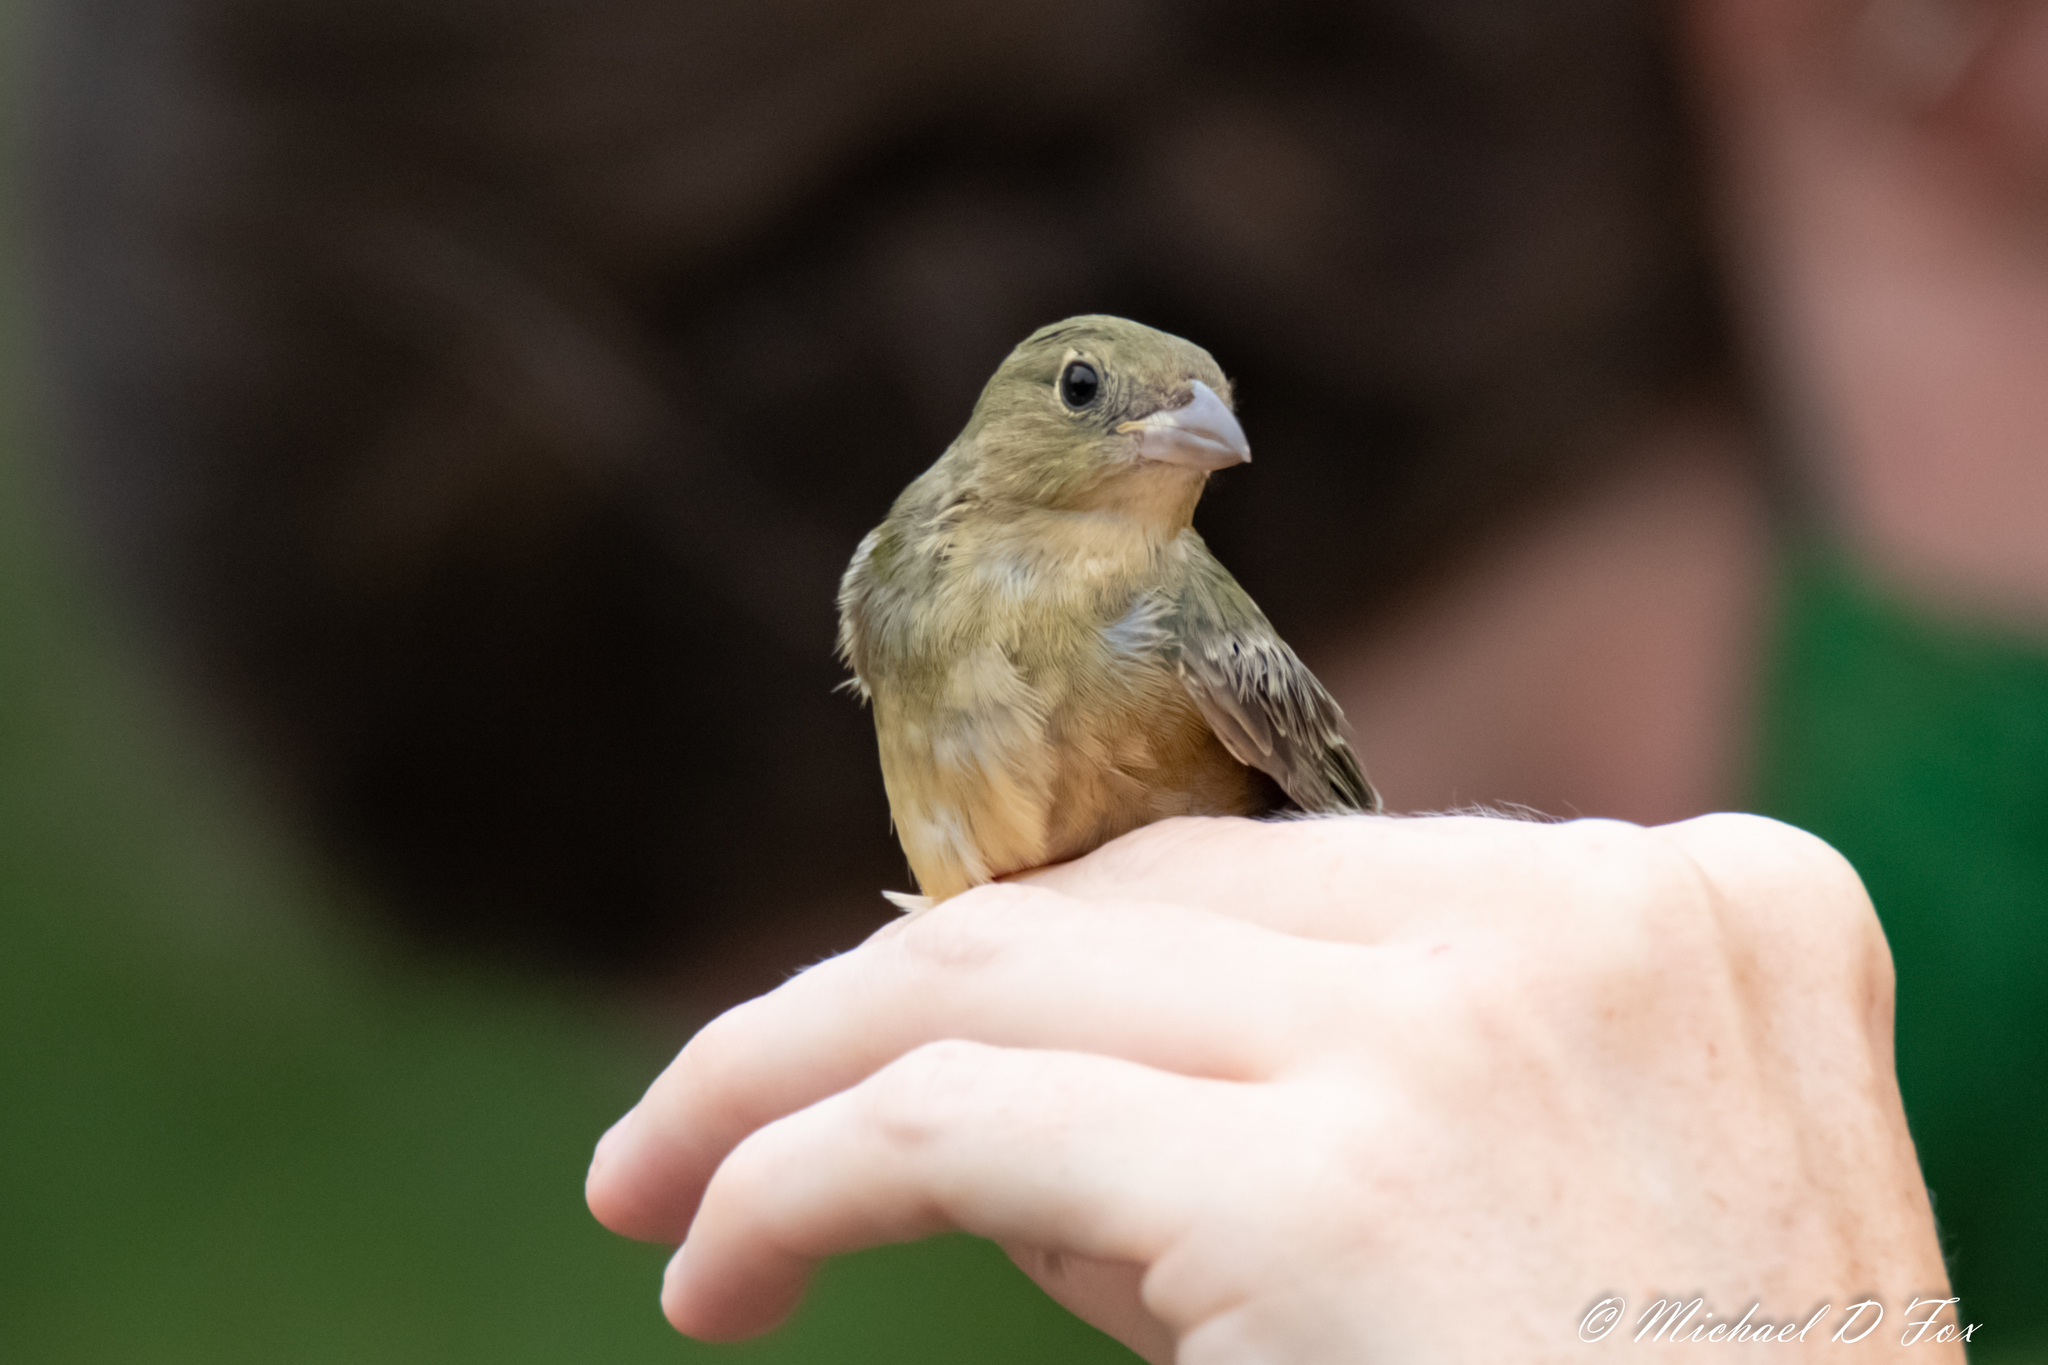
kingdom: Animalia
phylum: Chordata
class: Aves
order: Passeriformes
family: Cardinalidae
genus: Passerina
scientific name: Passerina ciris
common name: Painted bunting
